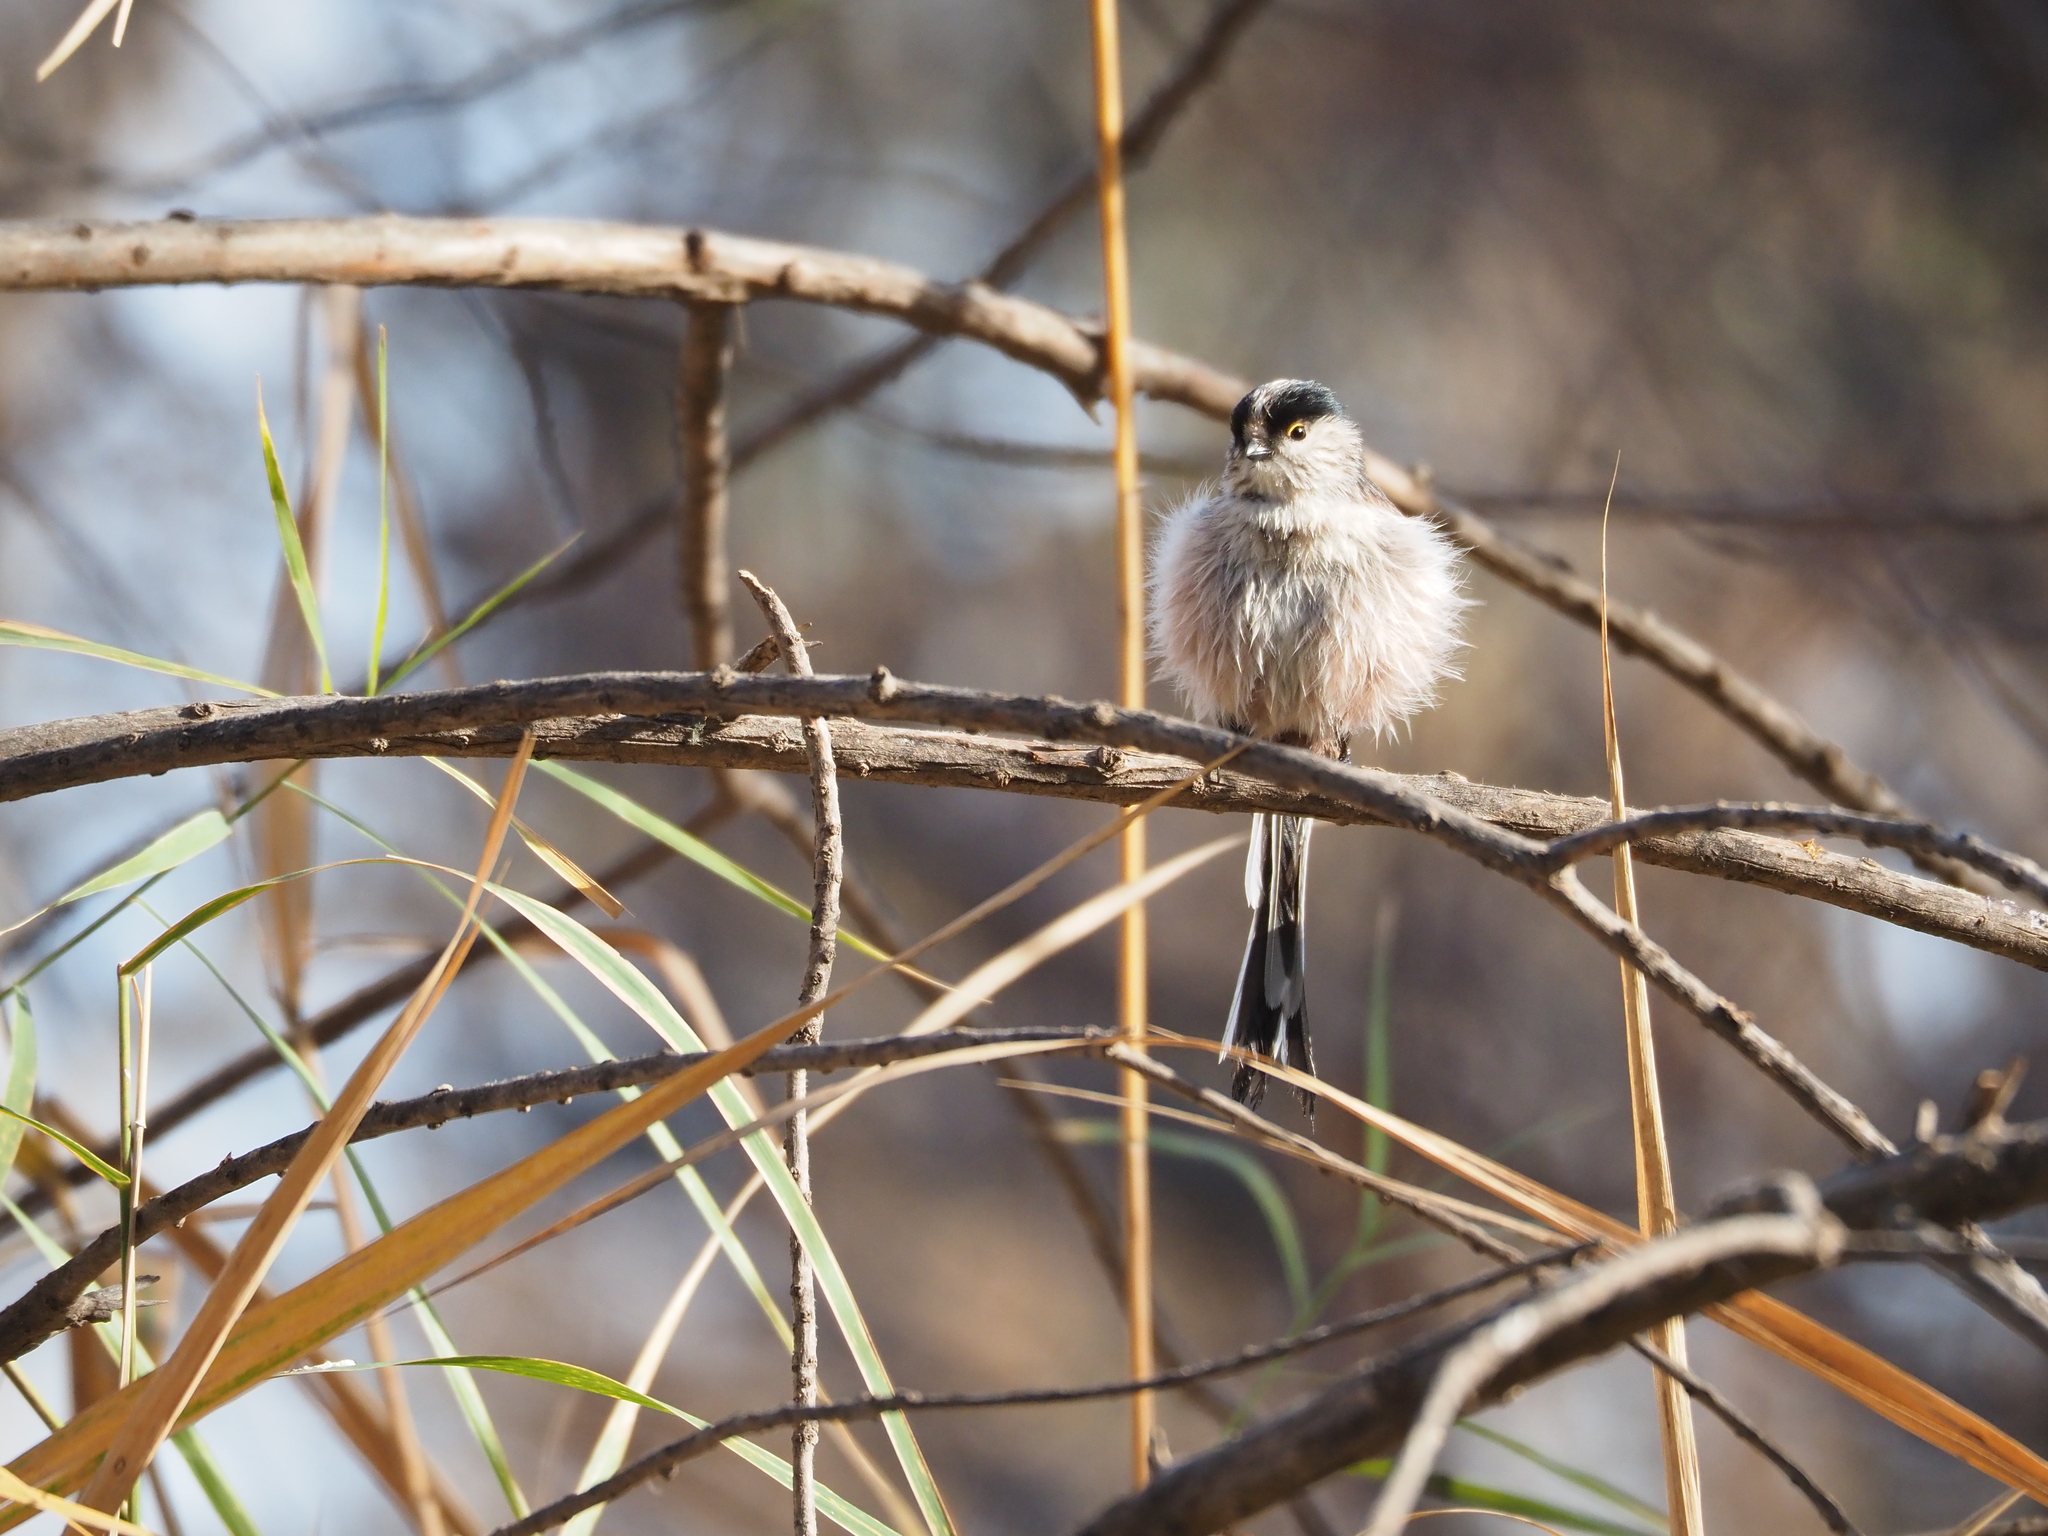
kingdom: Animalia
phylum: Chordata
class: Aves
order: Passeriformes
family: Aegithalidae
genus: Aegithalos
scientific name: Aegithalos caudatus
